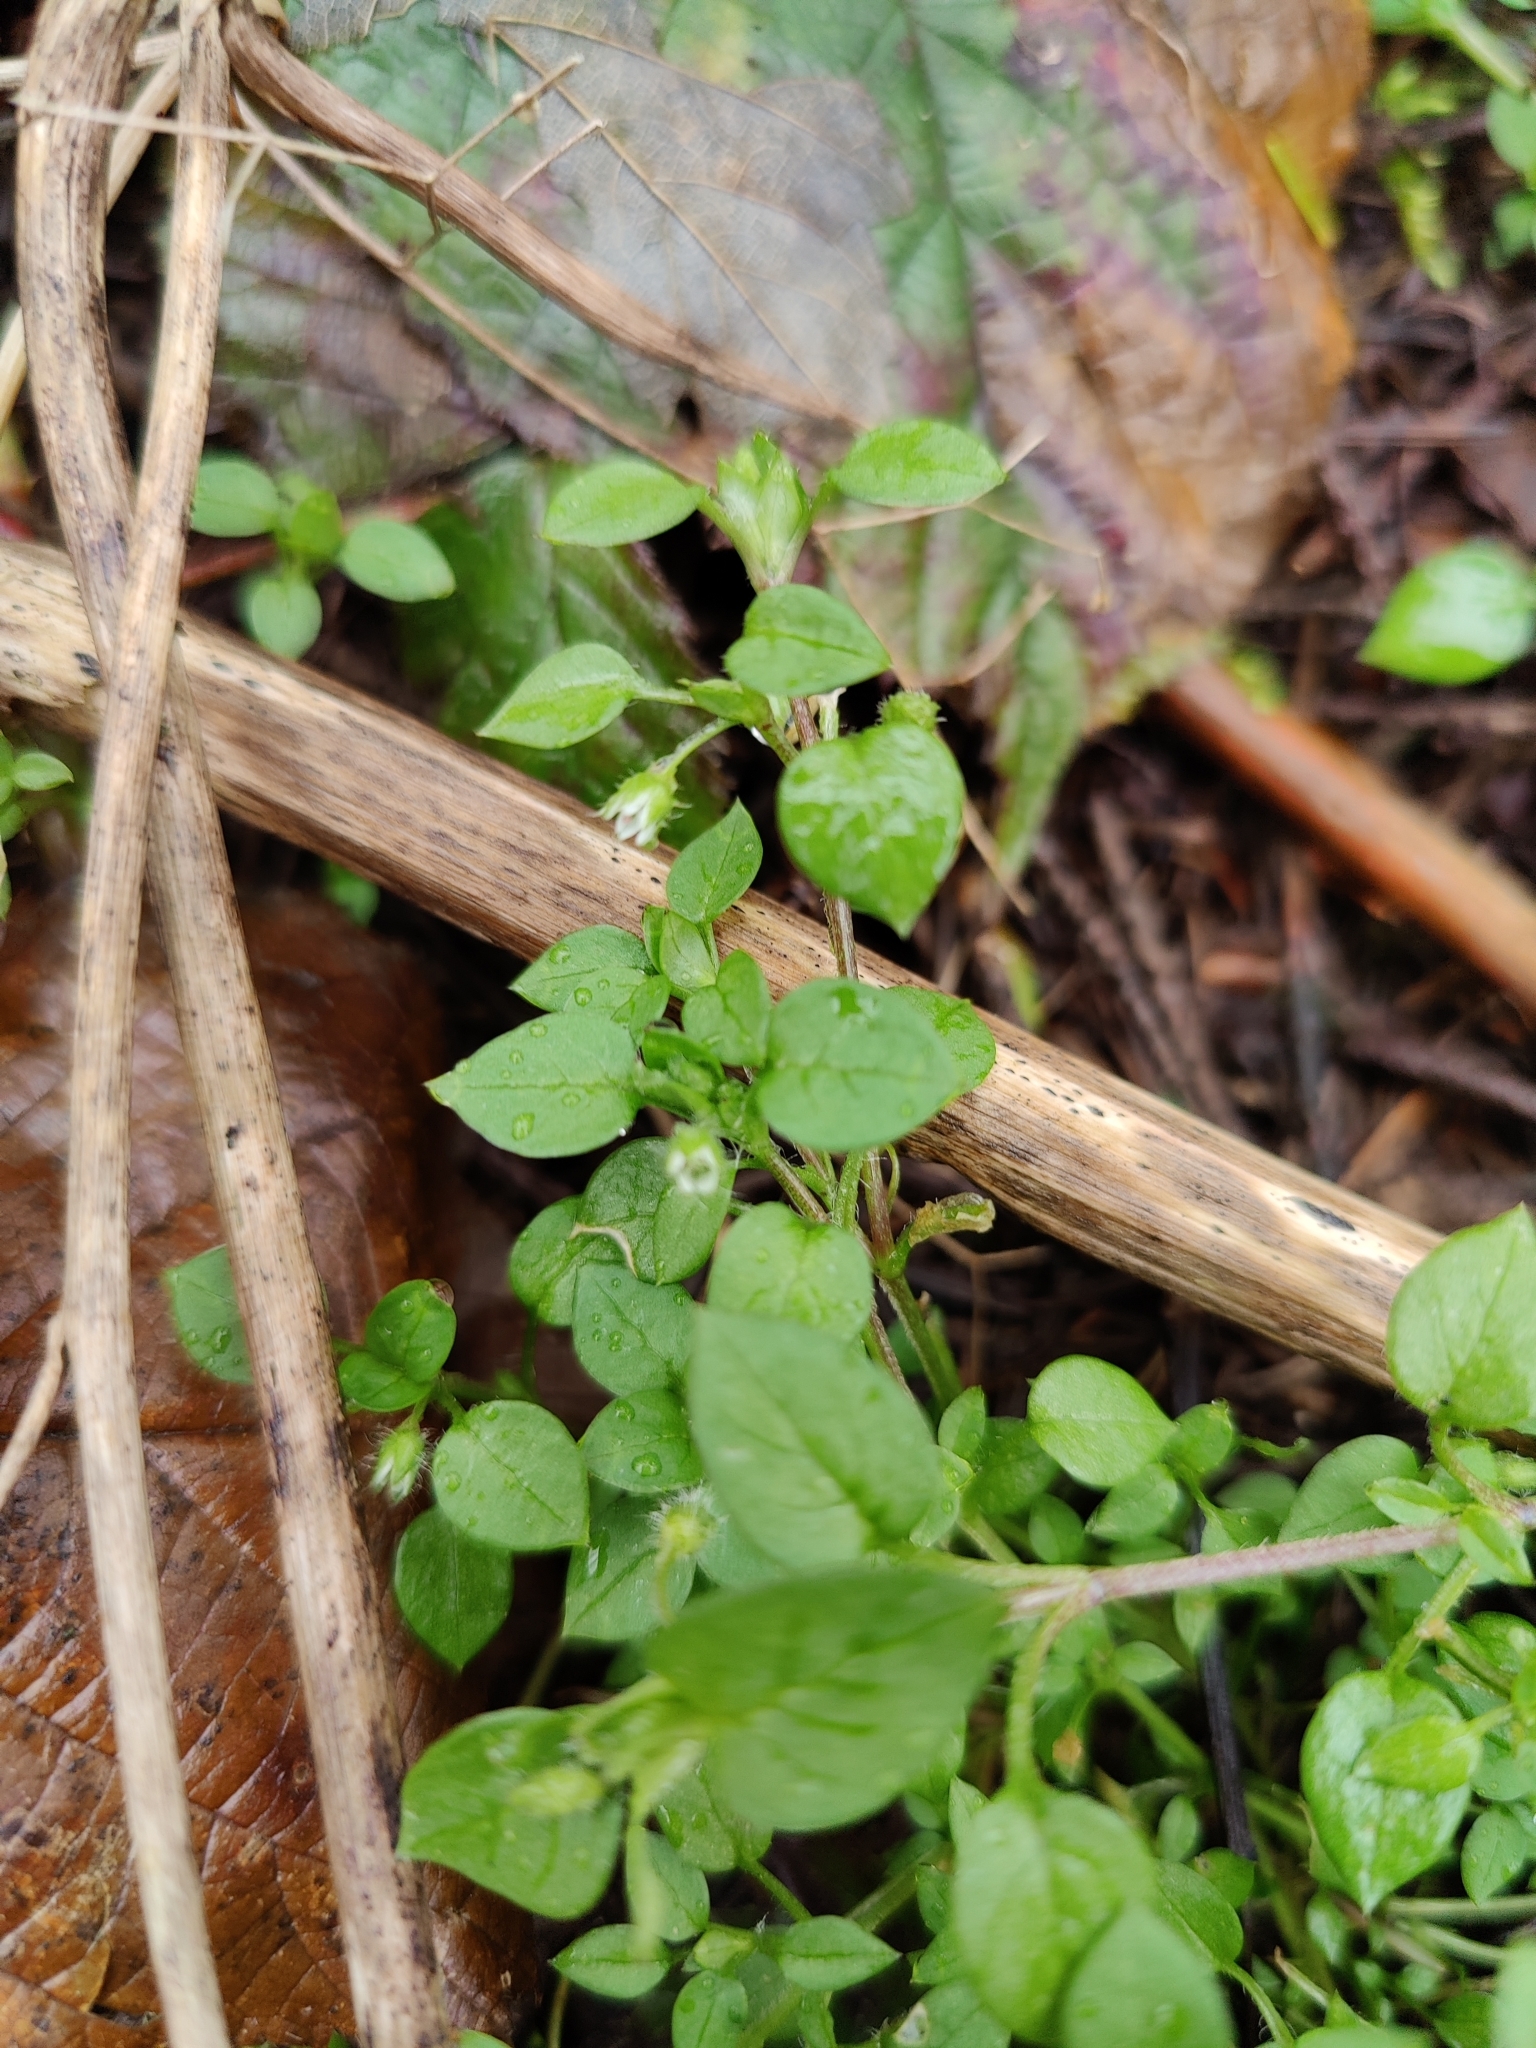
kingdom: Plantae
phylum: Tracheophyta
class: Magnoliopsida
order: Caryophyllales
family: Caryophyllaceae
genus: Stellaria
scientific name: Stellaria media
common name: Common chickweed
